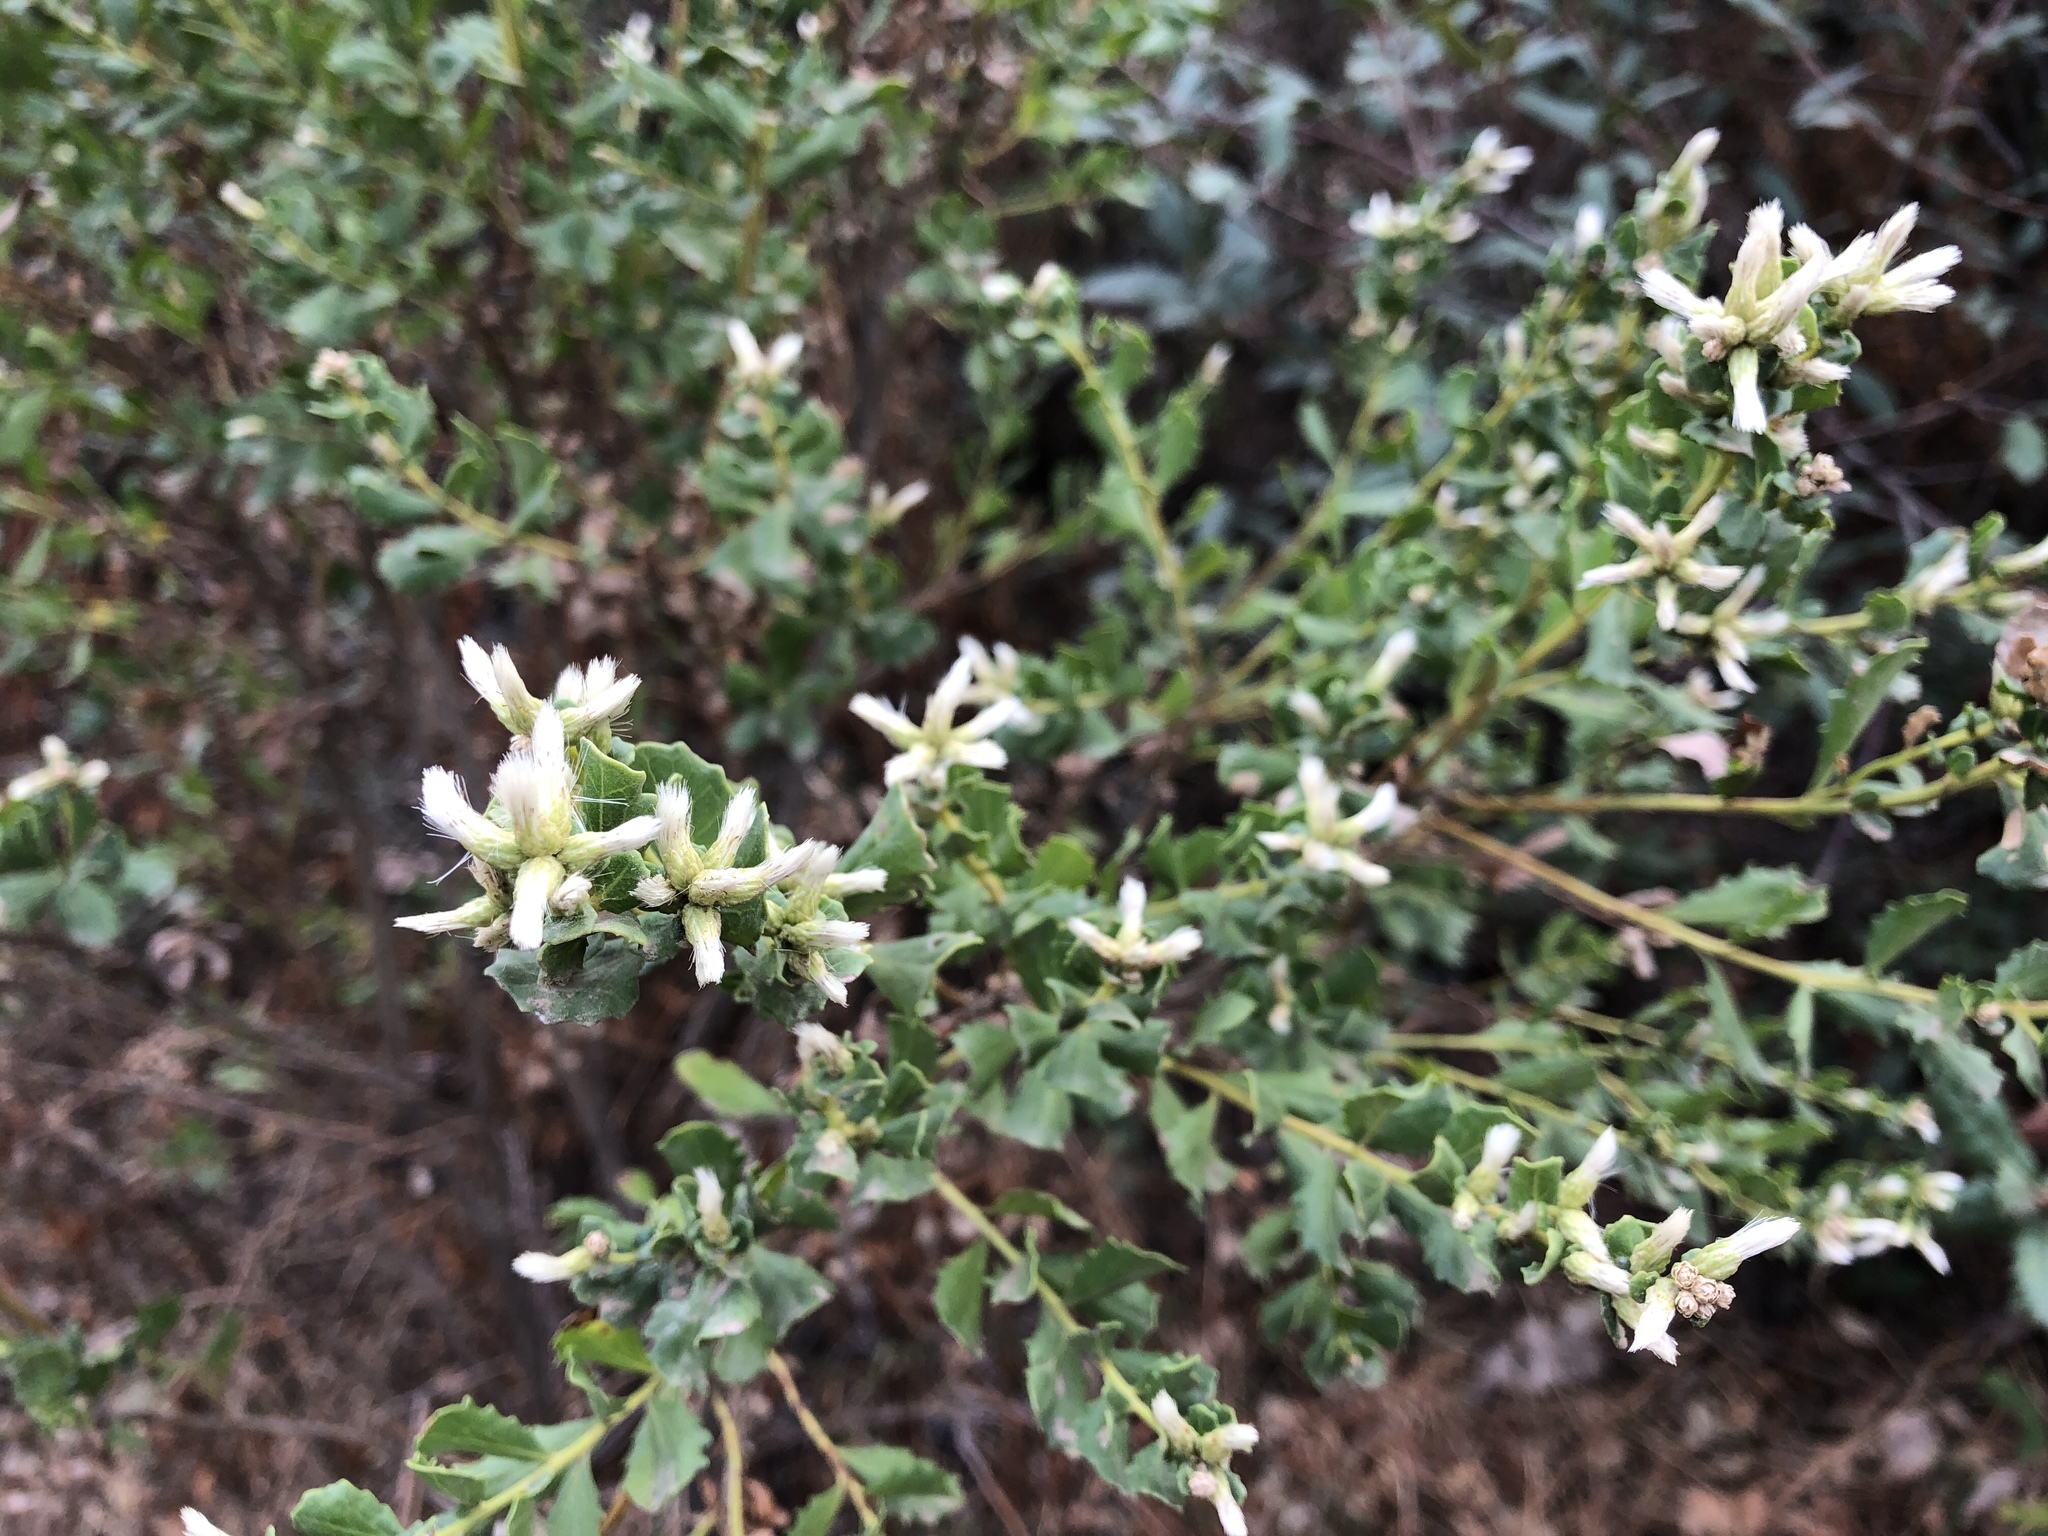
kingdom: Plantae
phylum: Tracheophyta
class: Magnoliopsida
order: Asterales
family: Asteraceae
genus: Baccharis
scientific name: Baccharis pilularis
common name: Coyotebrush
